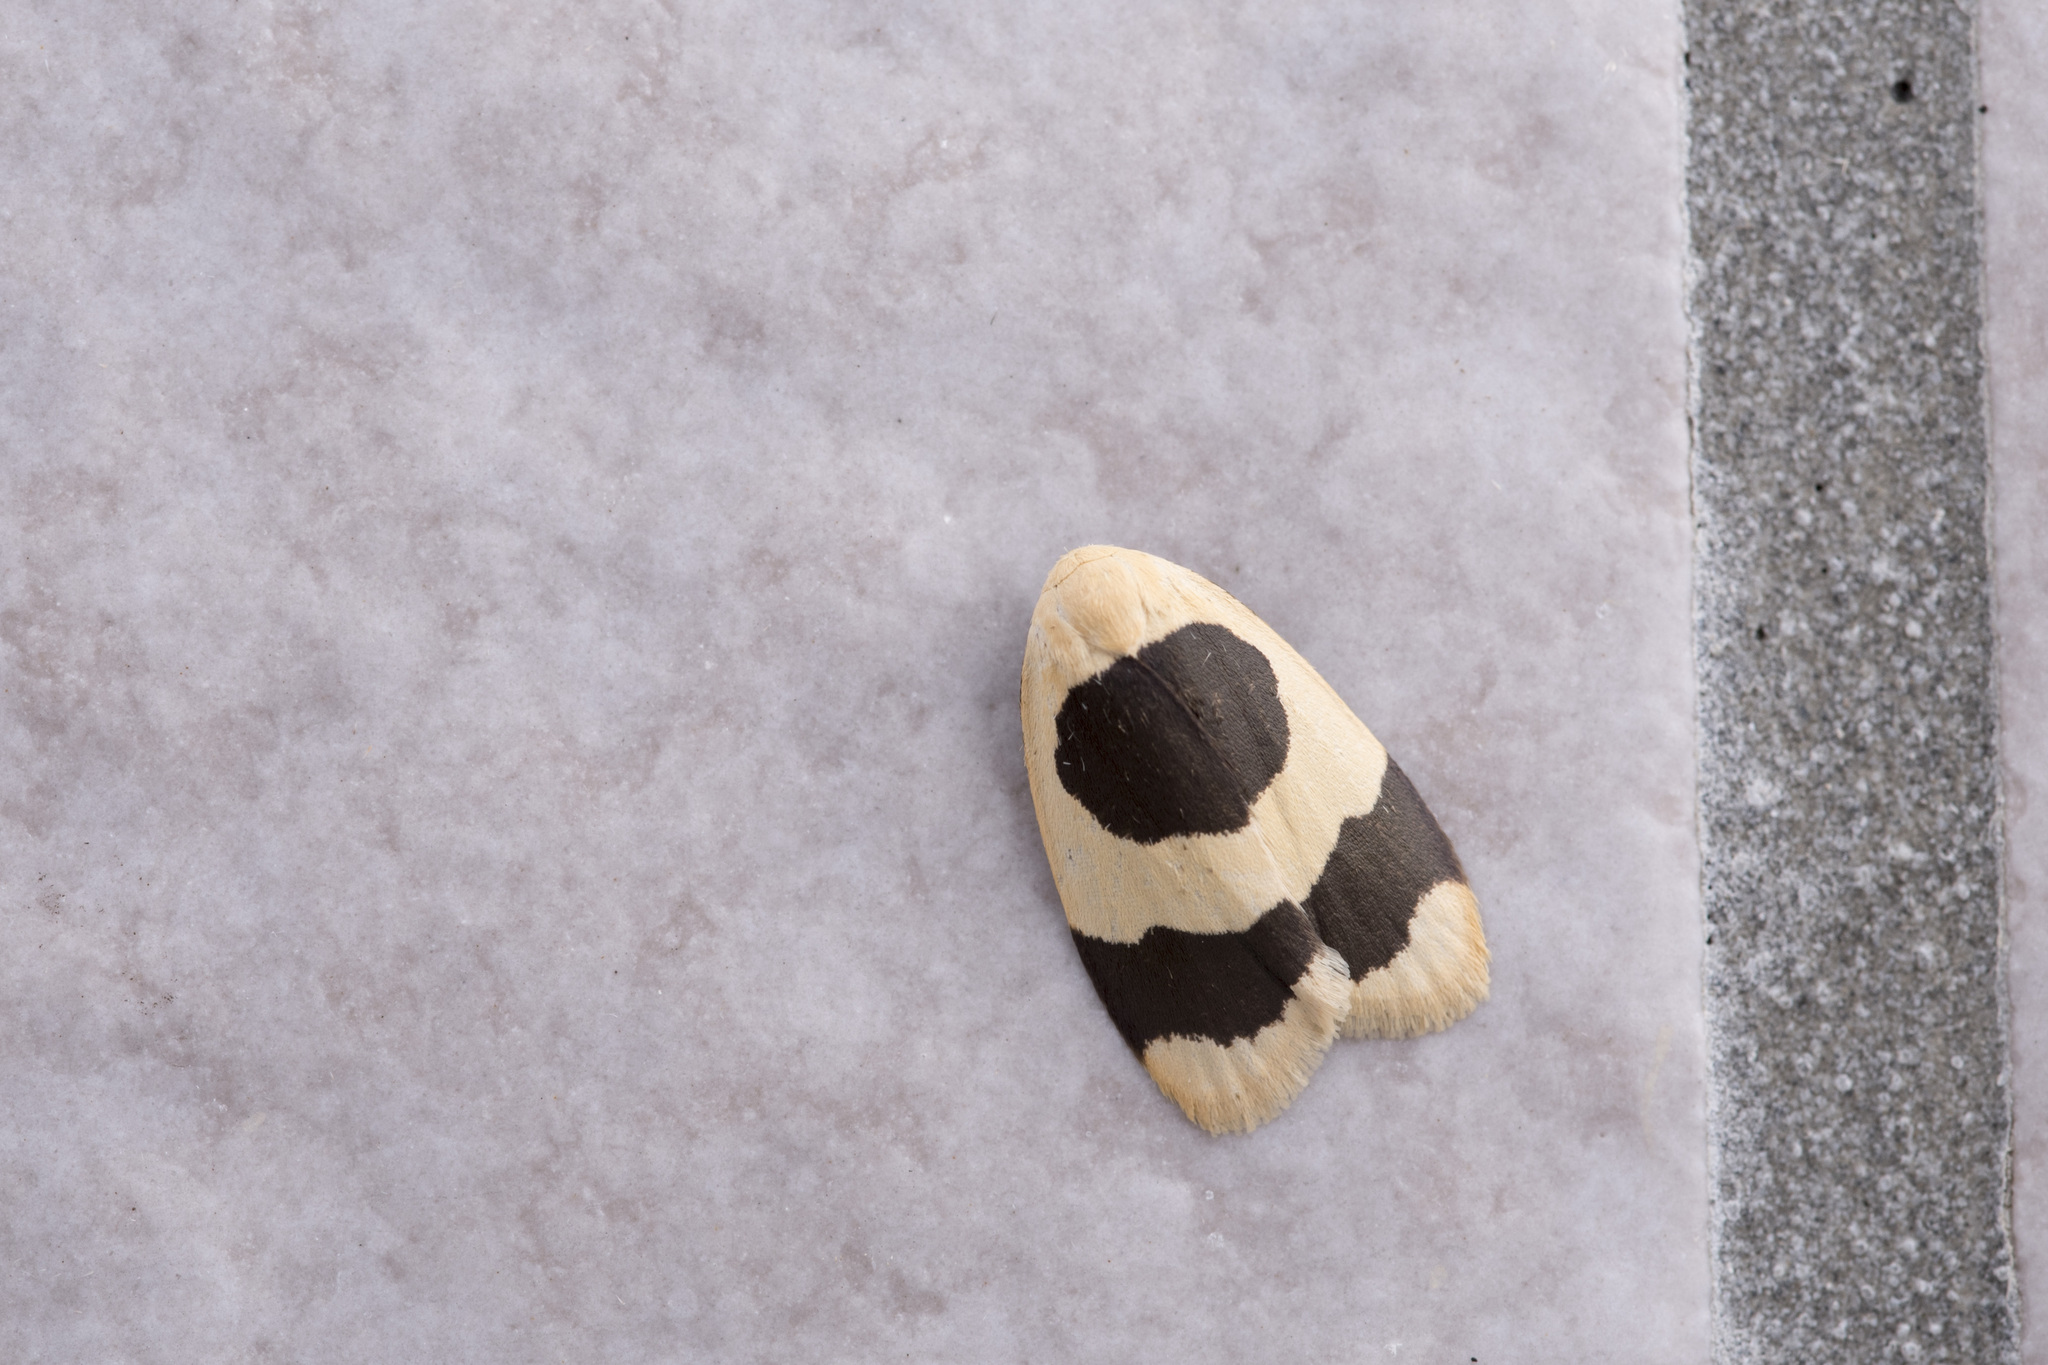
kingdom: Animalia
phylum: Arthropoda
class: Insecta
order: Lepidoptera
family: Erebidae
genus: Garudinia
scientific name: Garudinia taioana
